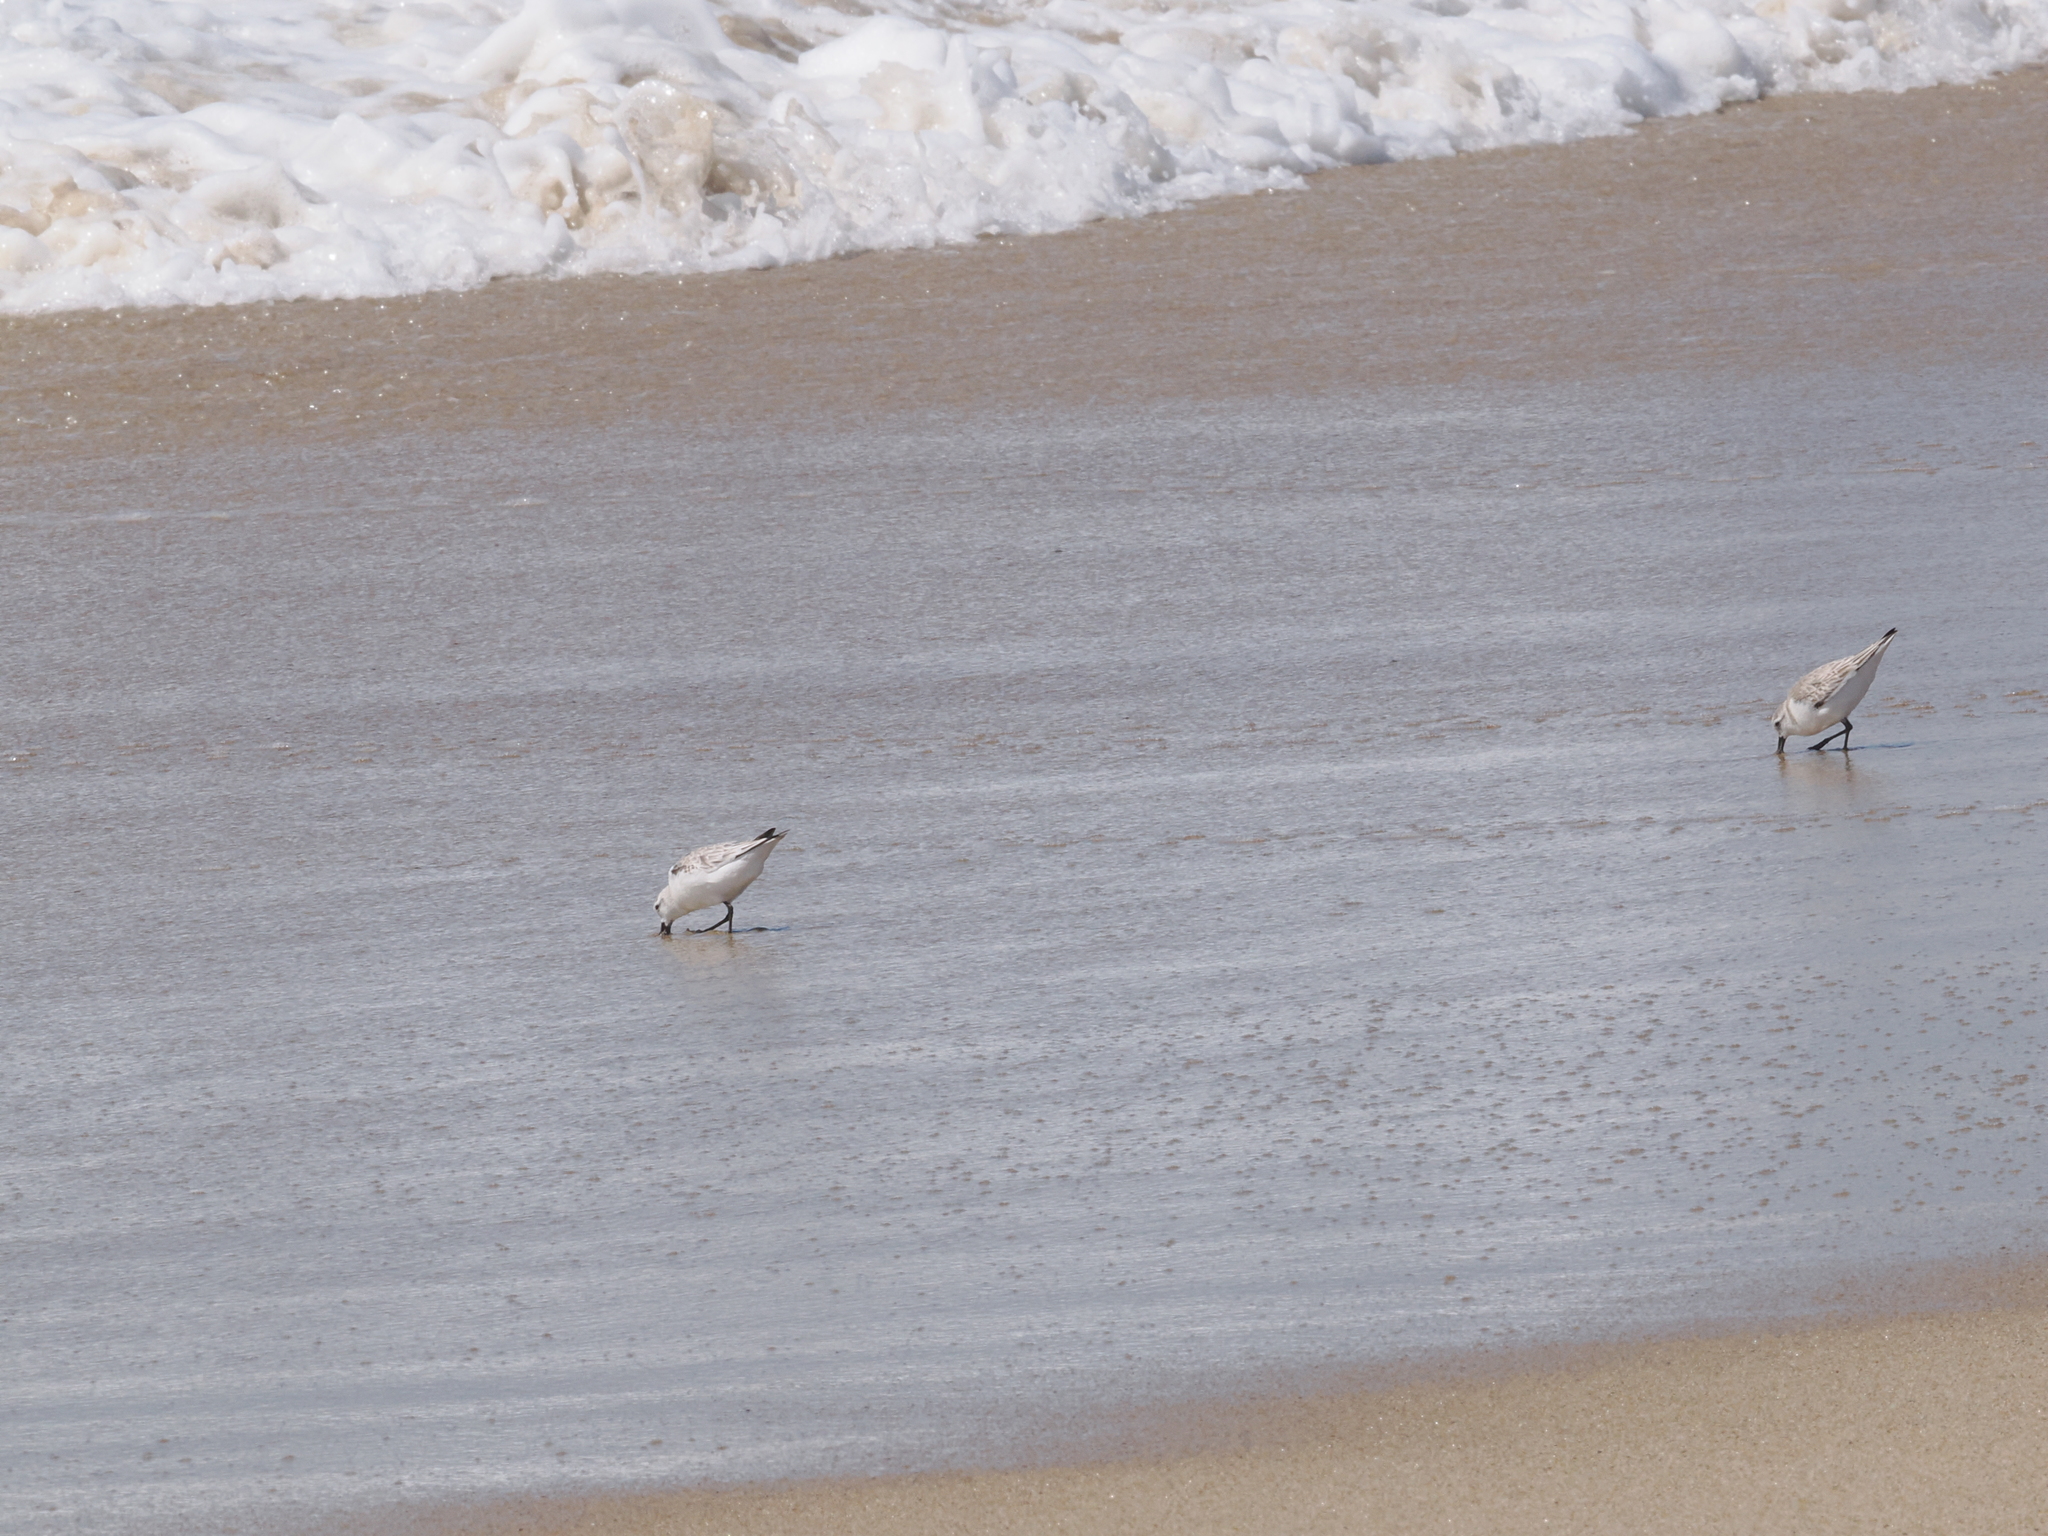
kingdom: Animalia
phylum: Chordata
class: Aves
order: Charadriiformes
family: Scolopacidae
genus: Calidris
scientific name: Calidris alba
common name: Sanderling
